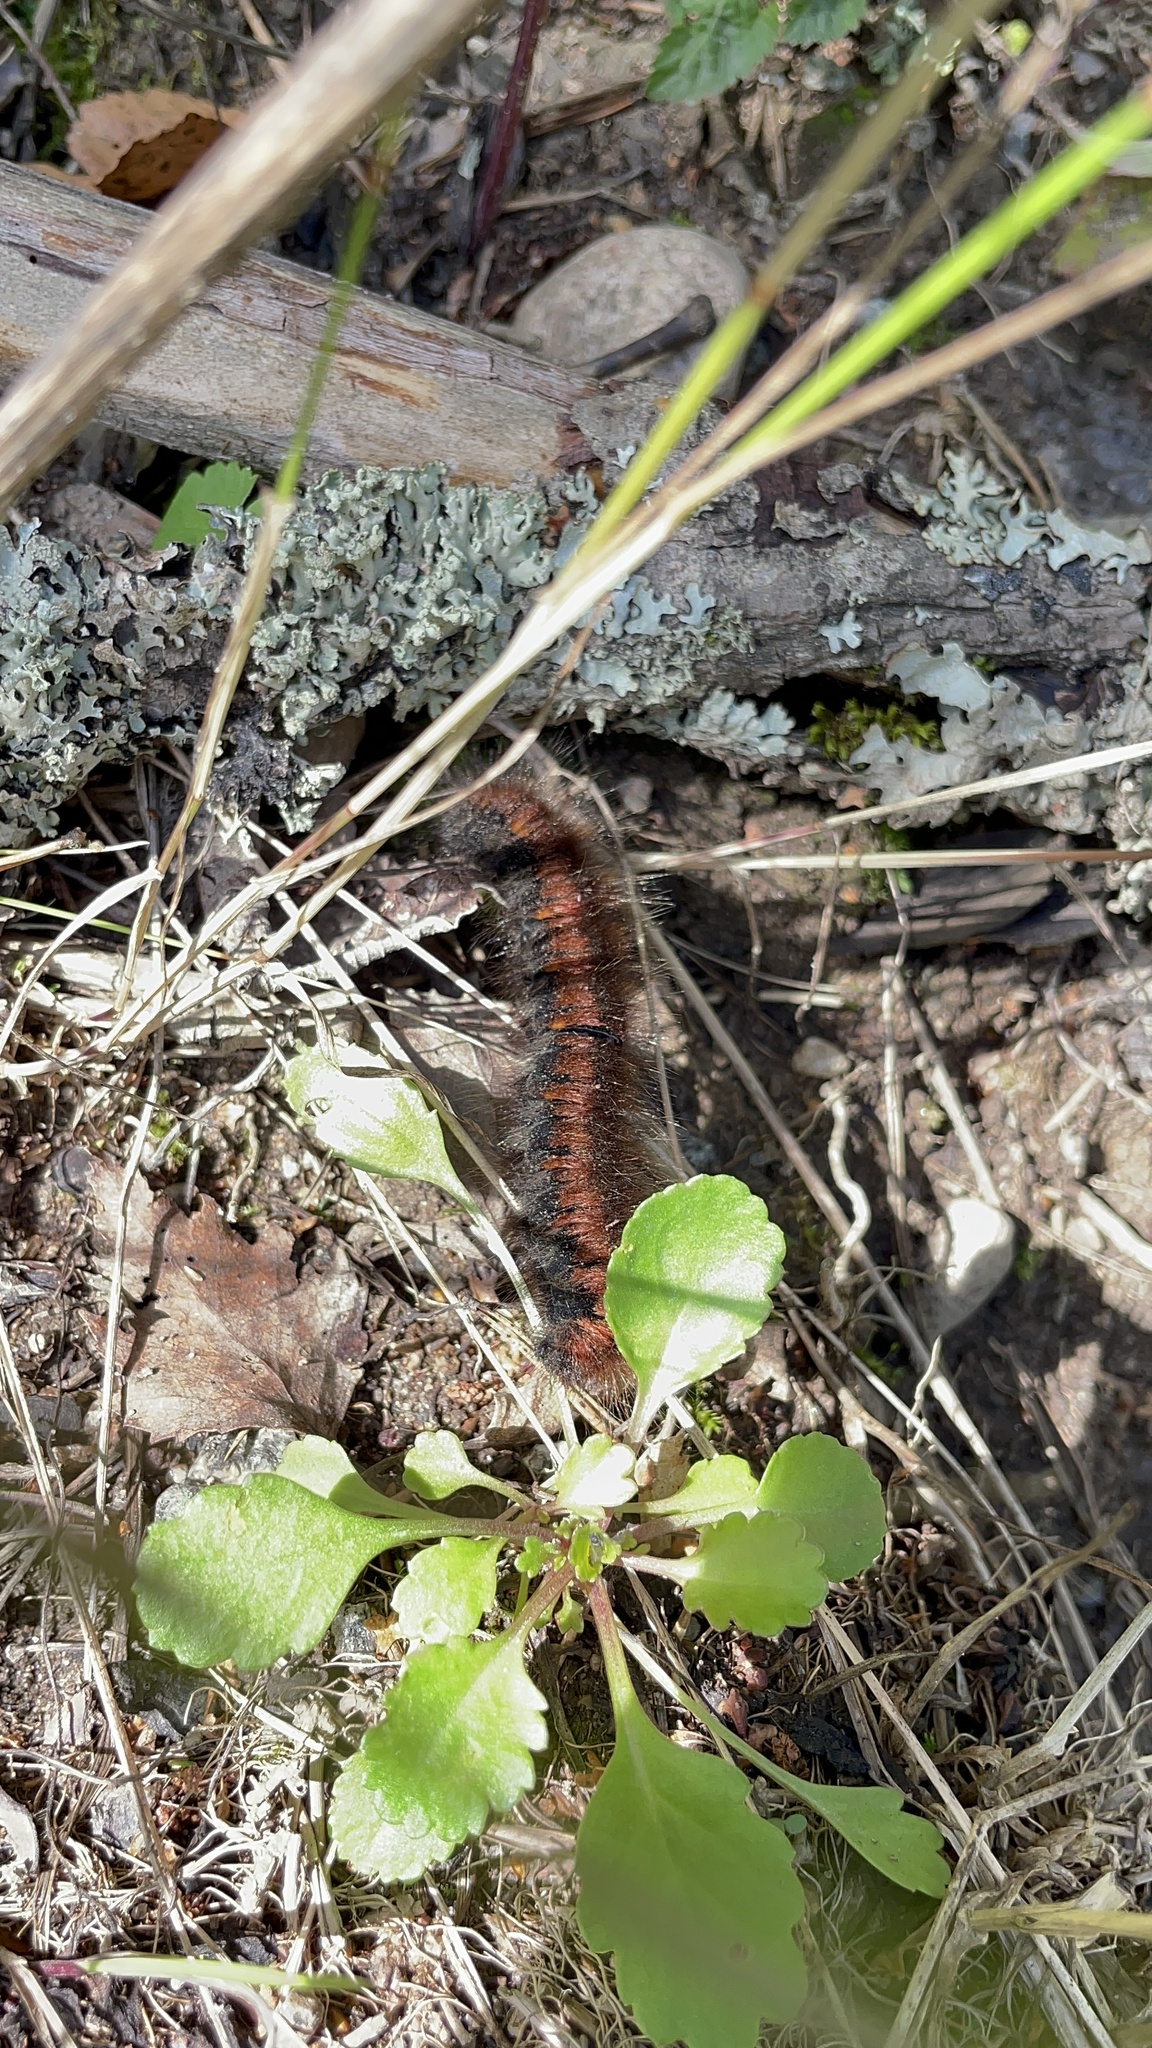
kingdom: Animalia
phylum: Arthropoda
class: Insecta
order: Lepidoptera
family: Lasiocampidae
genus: Macrothylacia
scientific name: Macrothylacia rubi
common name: Fox moth
